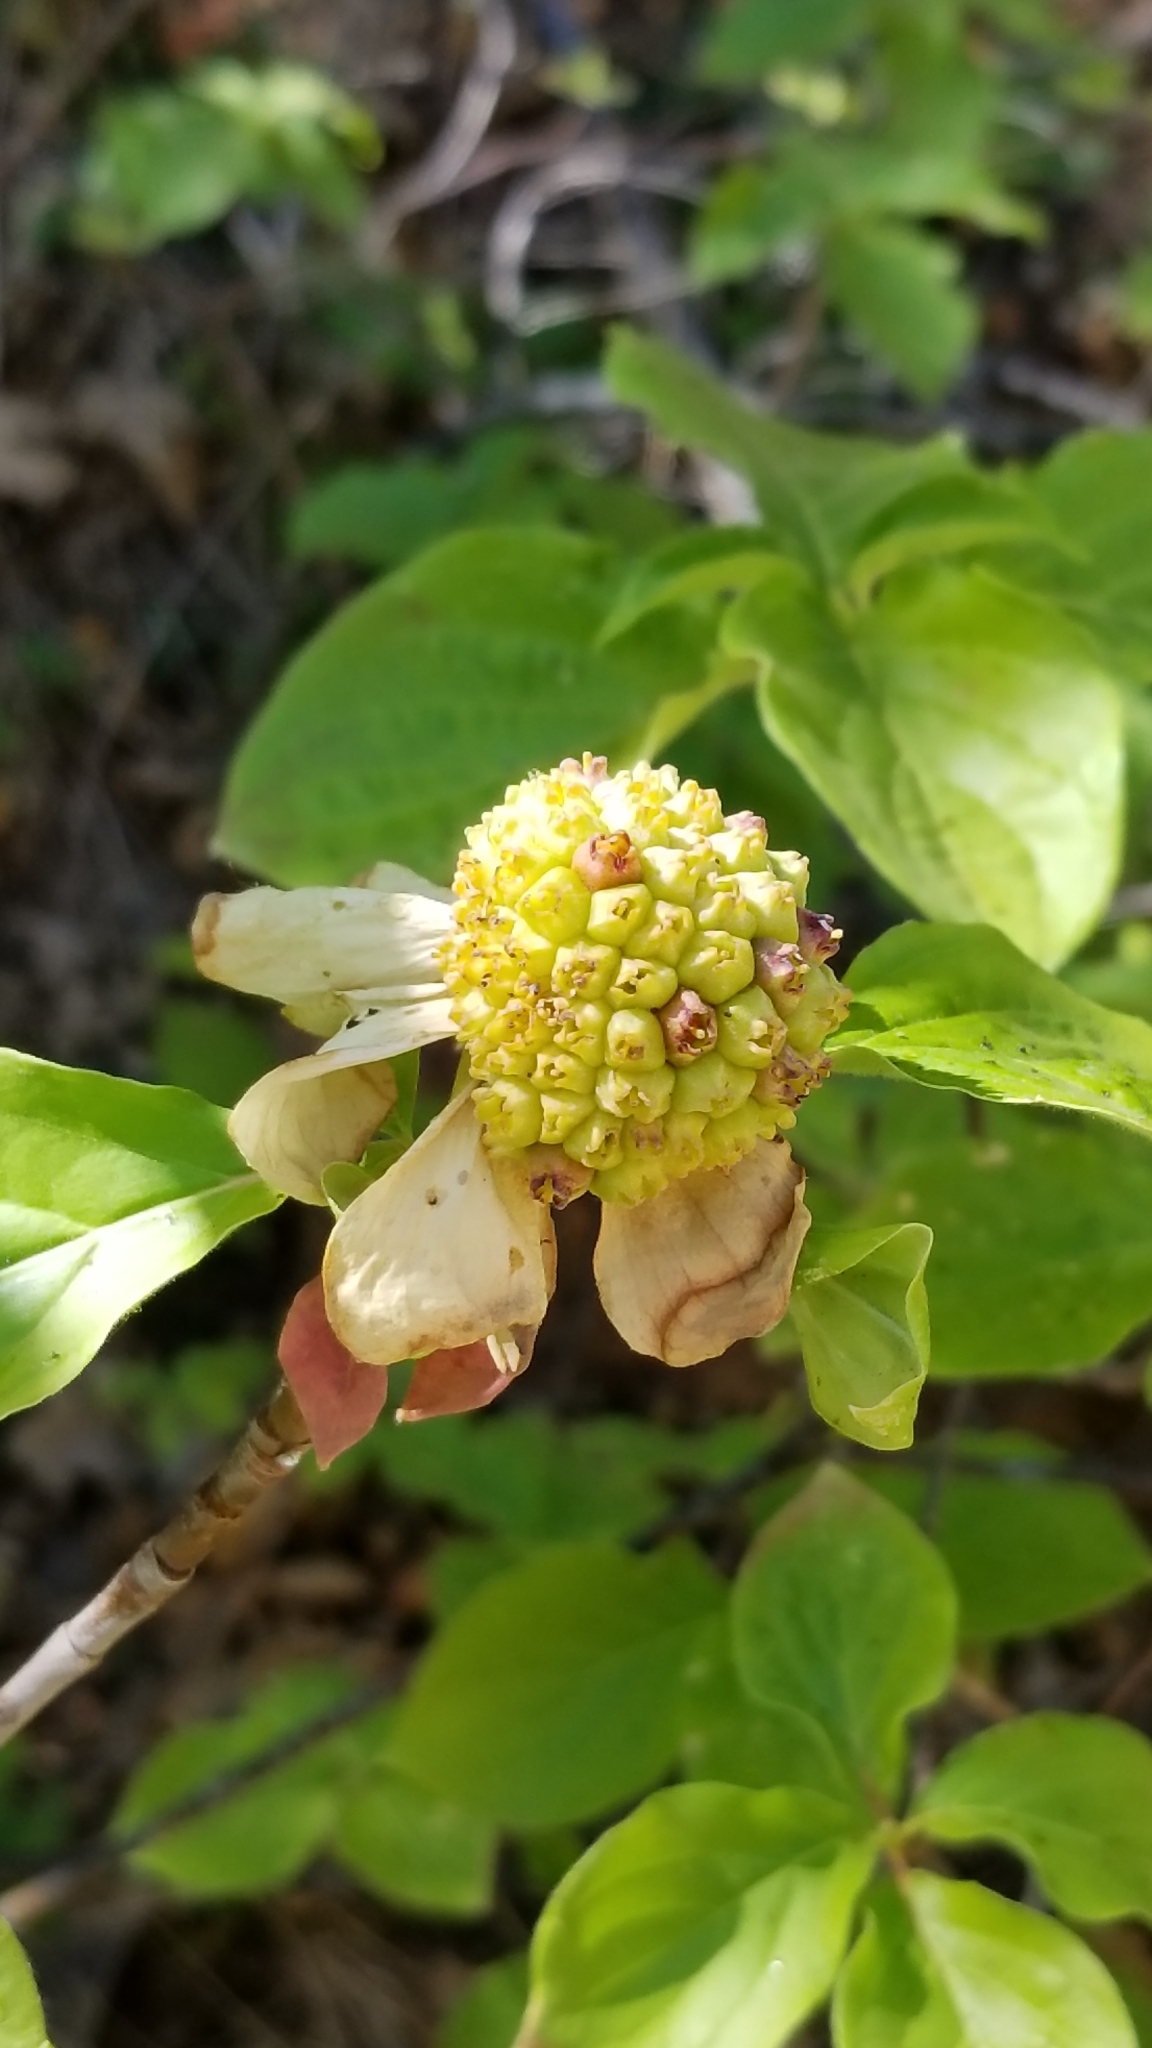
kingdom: Plantae
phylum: Tracheophyta
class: Magnoliopsida
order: Cornales
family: Cornaceae
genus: Cornus
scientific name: Cornus nuttallii
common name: Pacific dogwood
